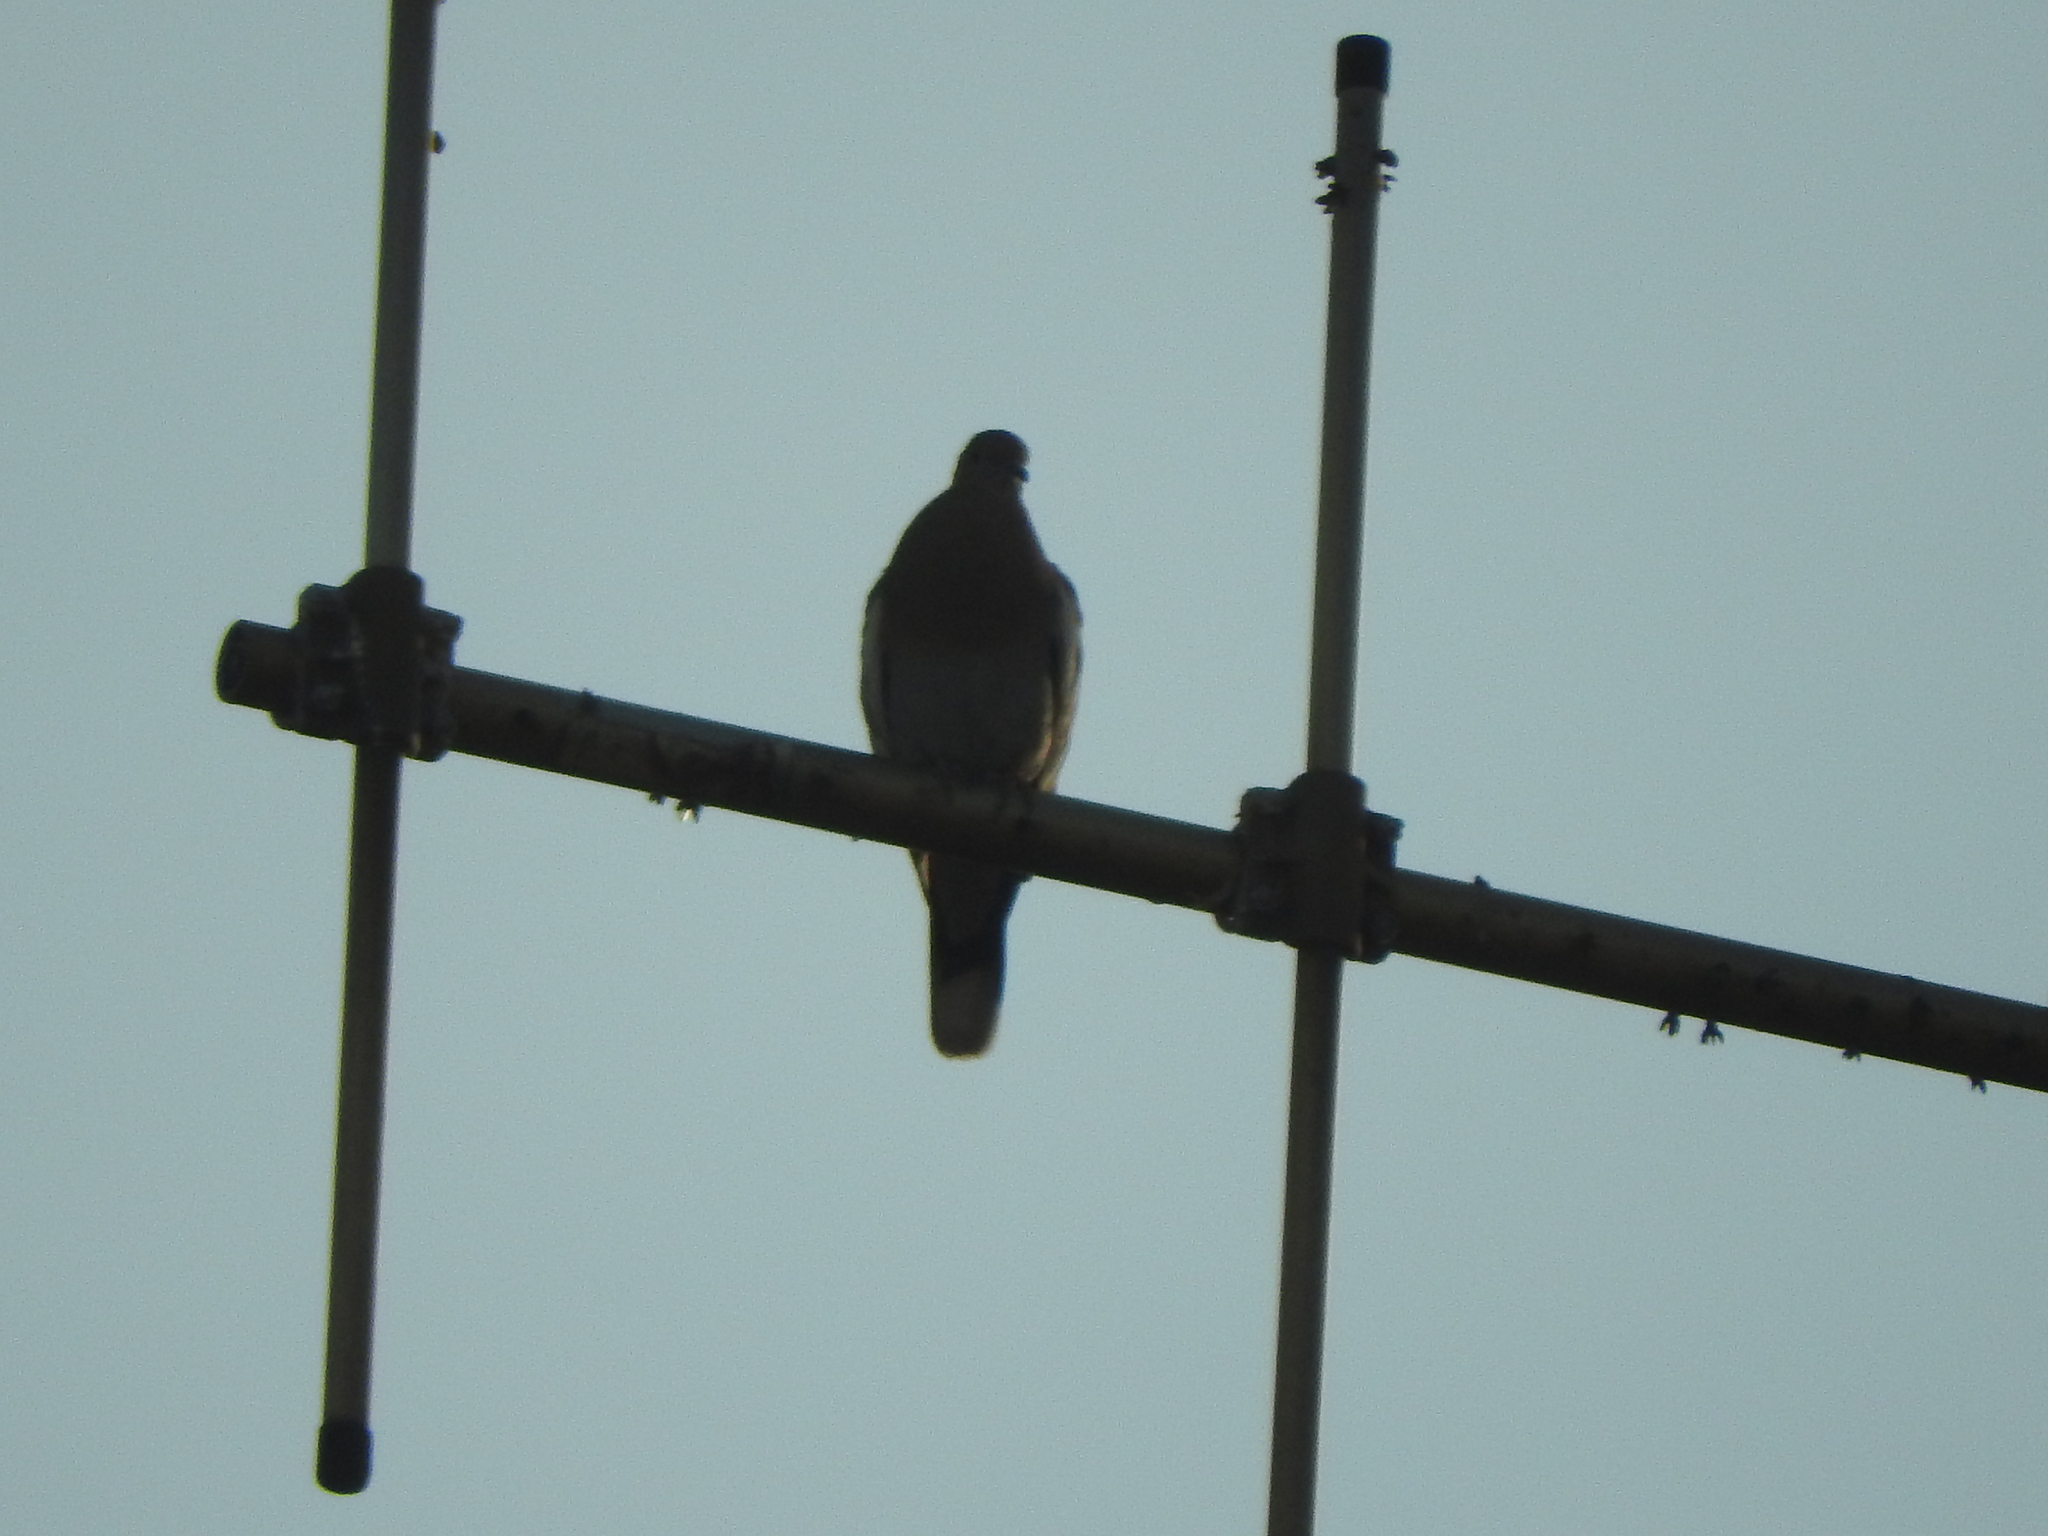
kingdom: Animalia
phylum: Chordata
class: Aves
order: Columbiformes
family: Columbidae
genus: Zenaida
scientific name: Zenaida asiatica
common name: White-winged dove
